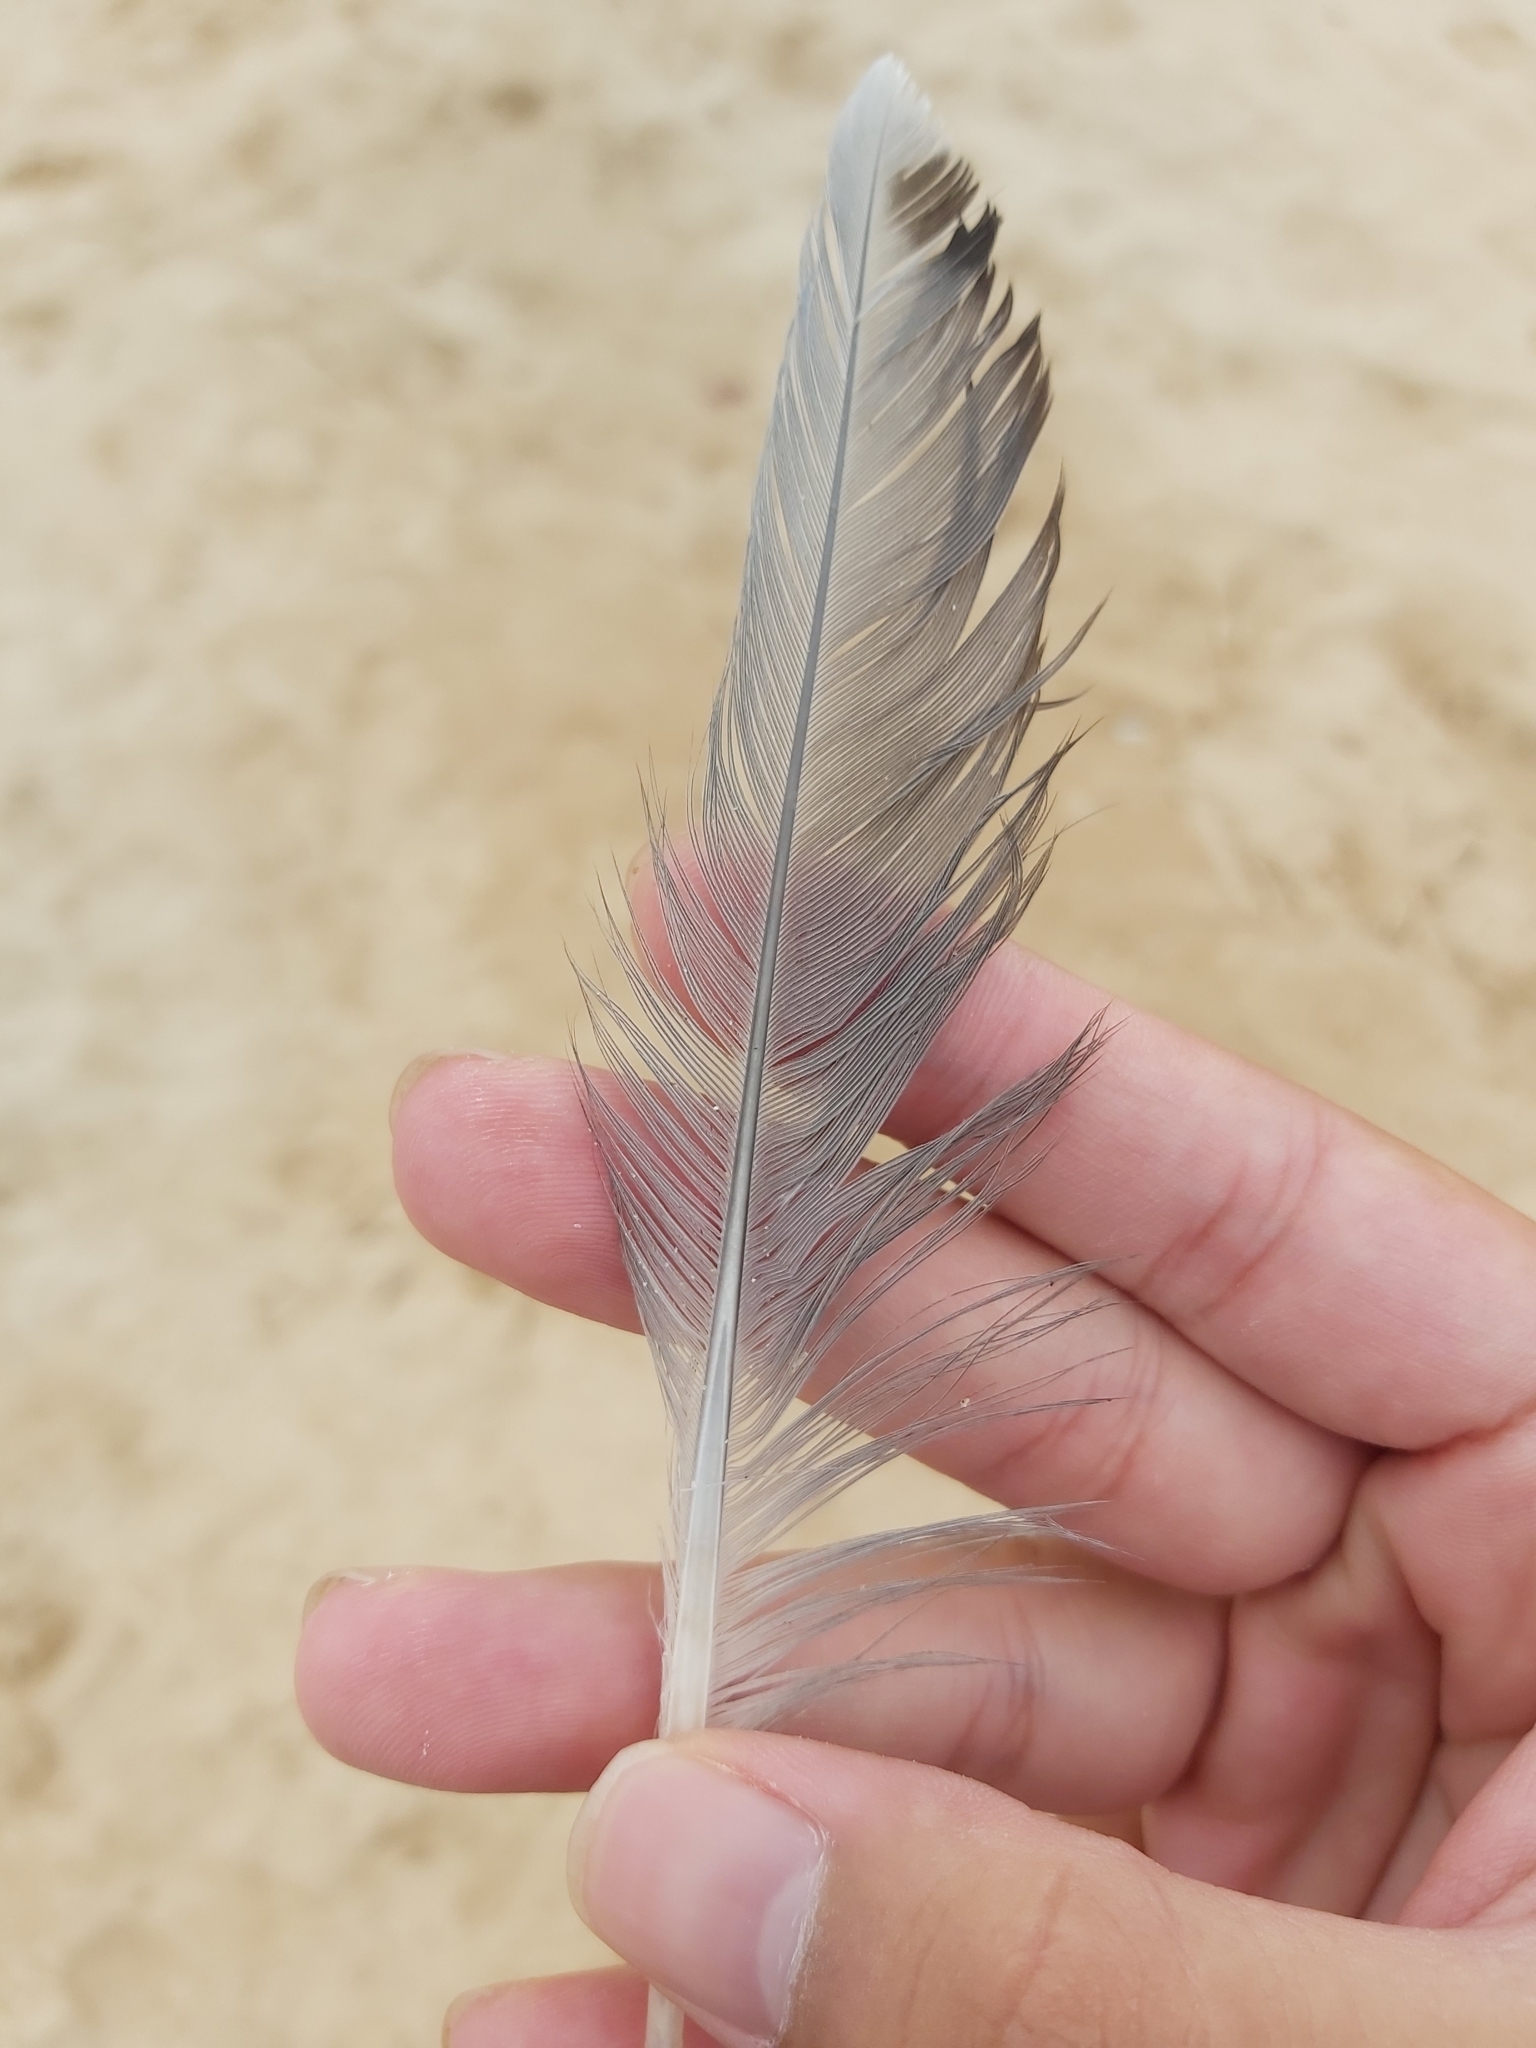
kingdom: Animalia
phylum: Chordata
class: Aves
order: Charadriiformes
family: Laridae
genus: Chroicocephalus
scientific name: Chroicocephalus novaehollandiae
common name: Silver gull
